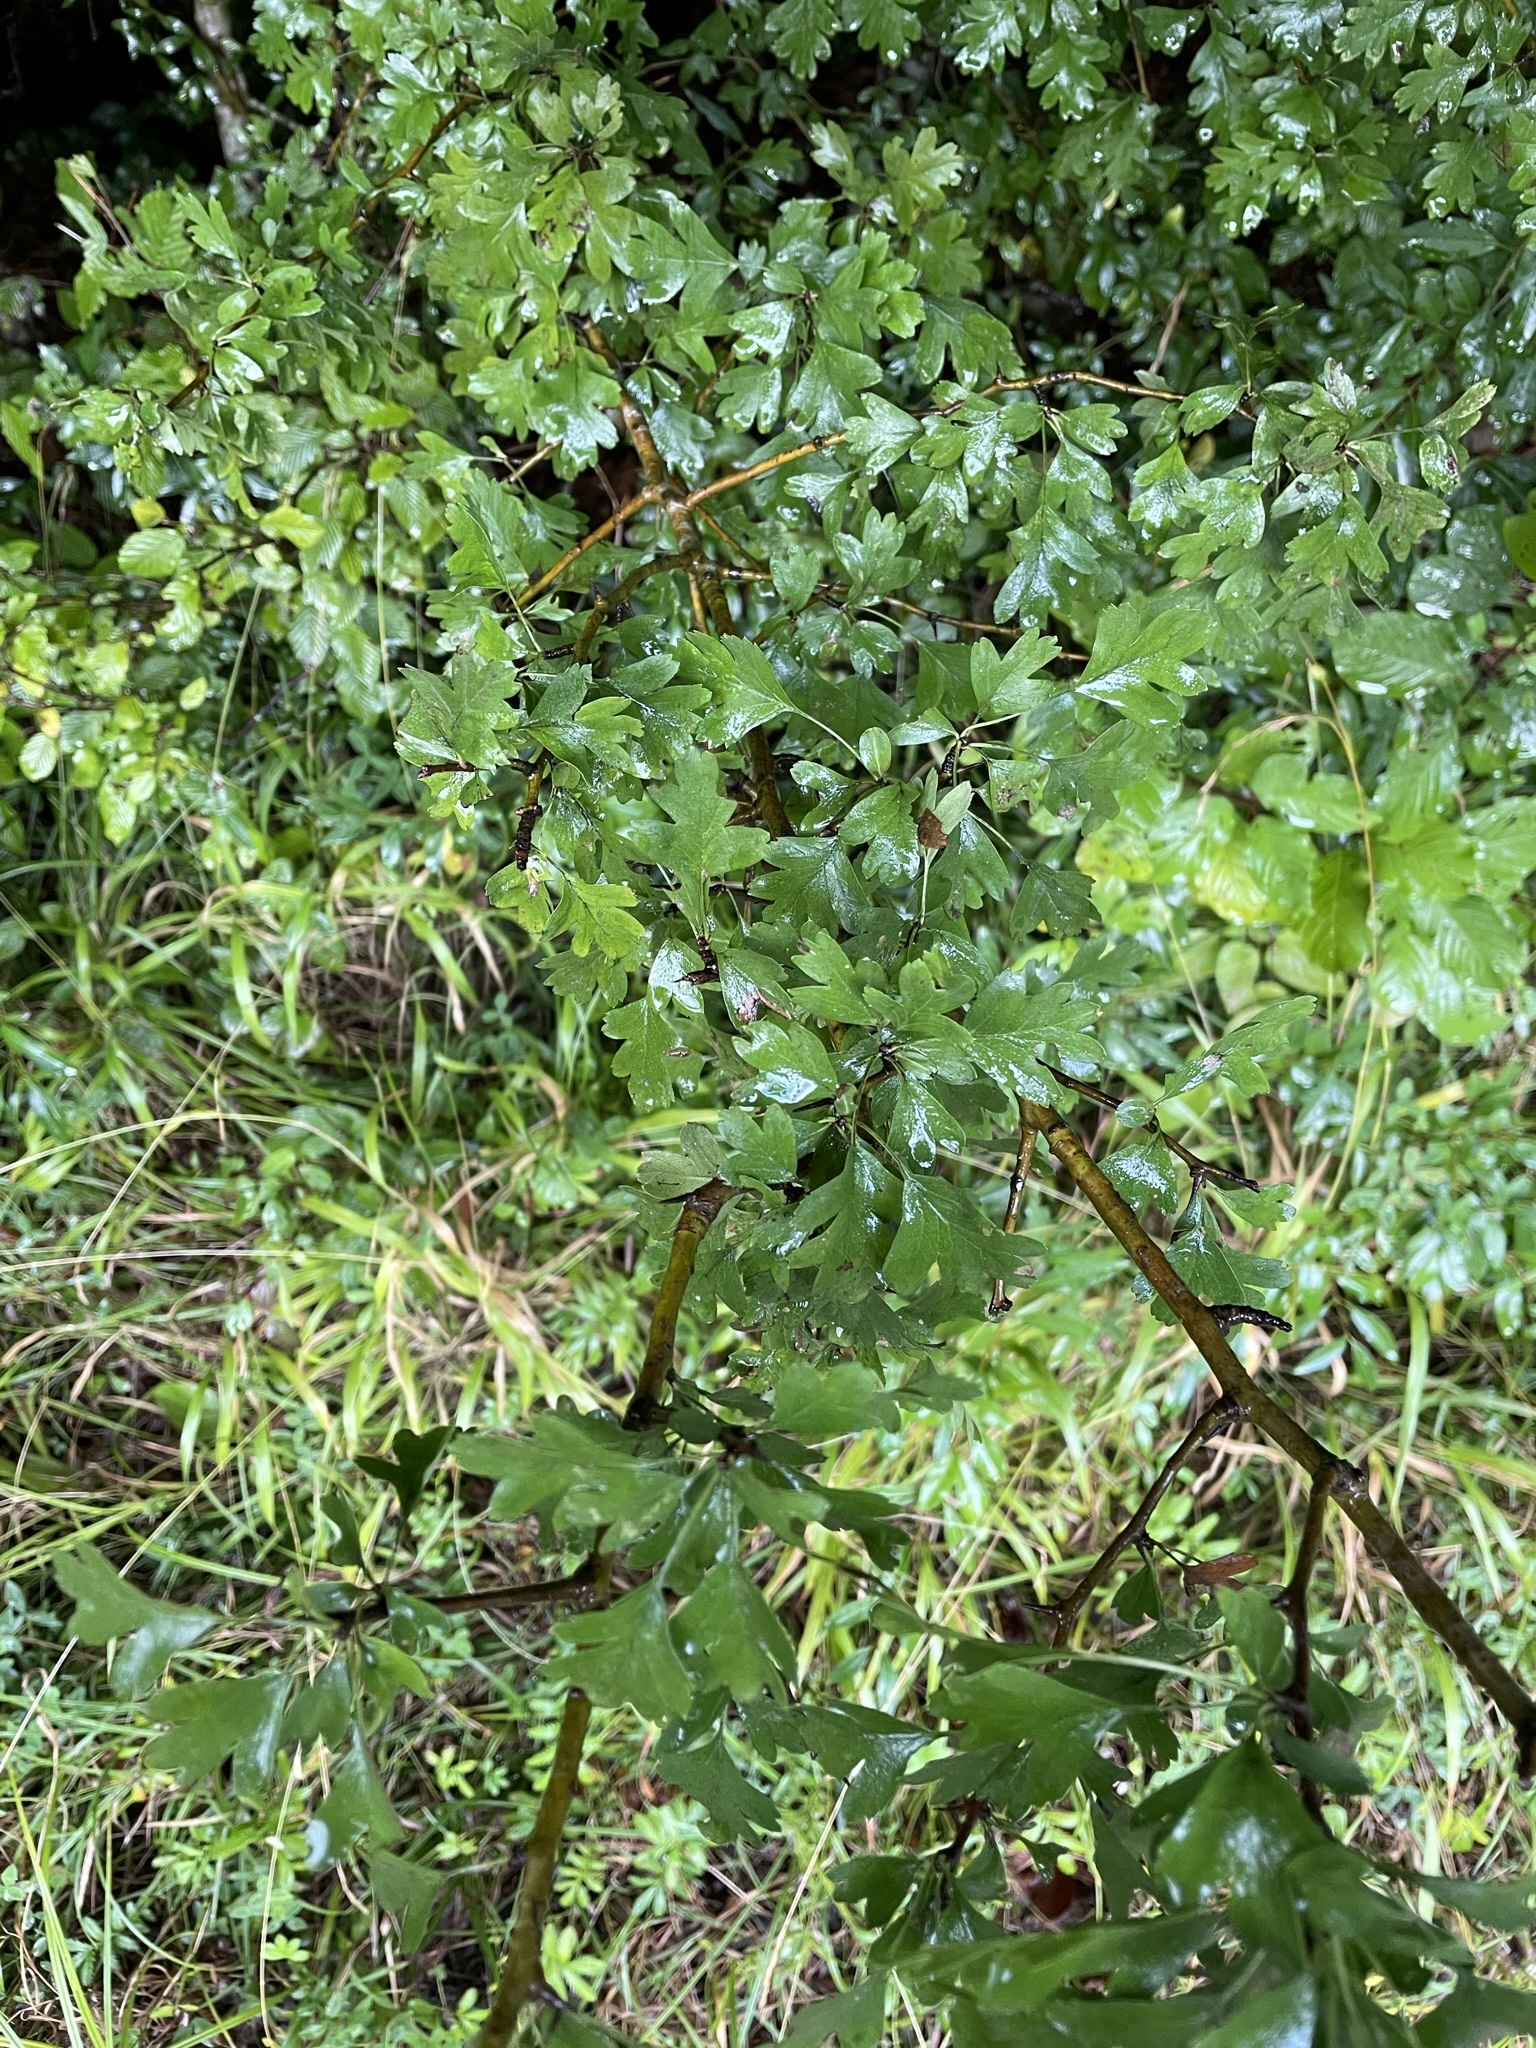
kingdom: Plantae
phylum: Tracheophyta
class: Magnoliopsida
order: Rosales
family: Rosaceae
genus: Crataegus
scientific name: Crataegus monogyna
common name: Hawthorn
